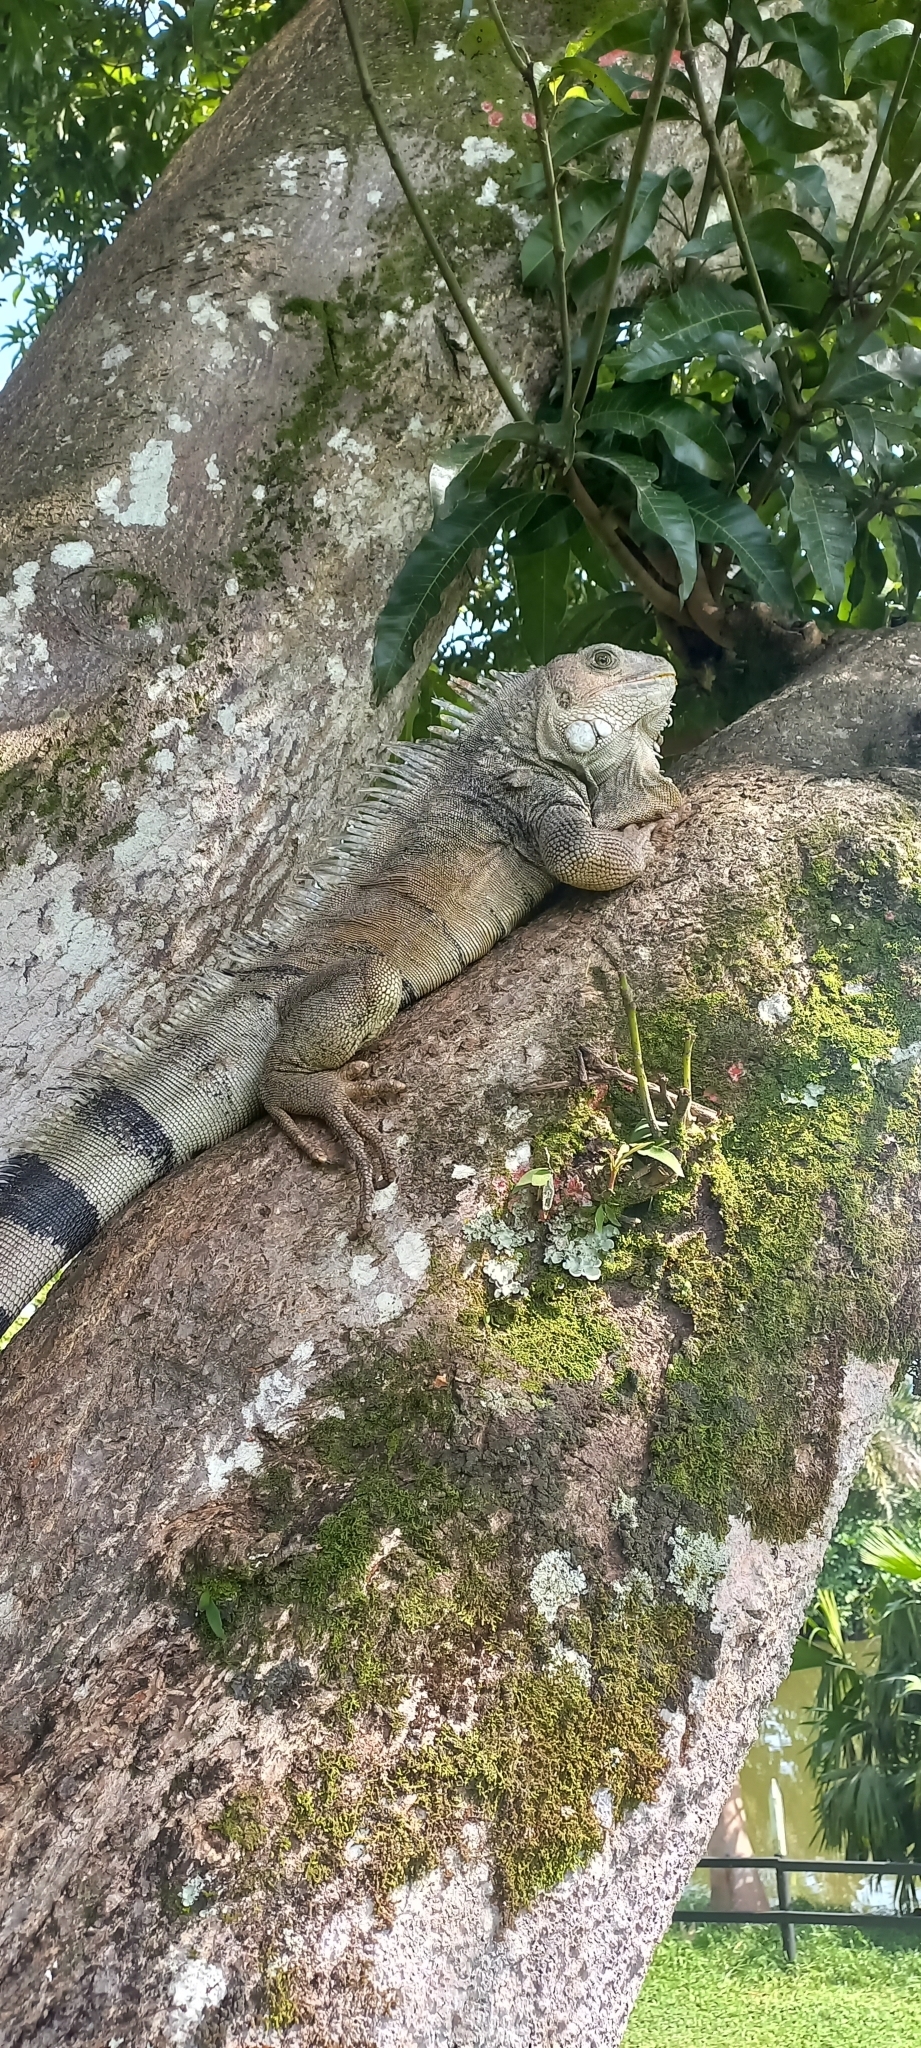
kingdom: Animalia
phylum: Chordata
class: Squamata
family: Iguanidae
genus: Iguana
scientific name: Iguana iguana
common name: Green iguana
